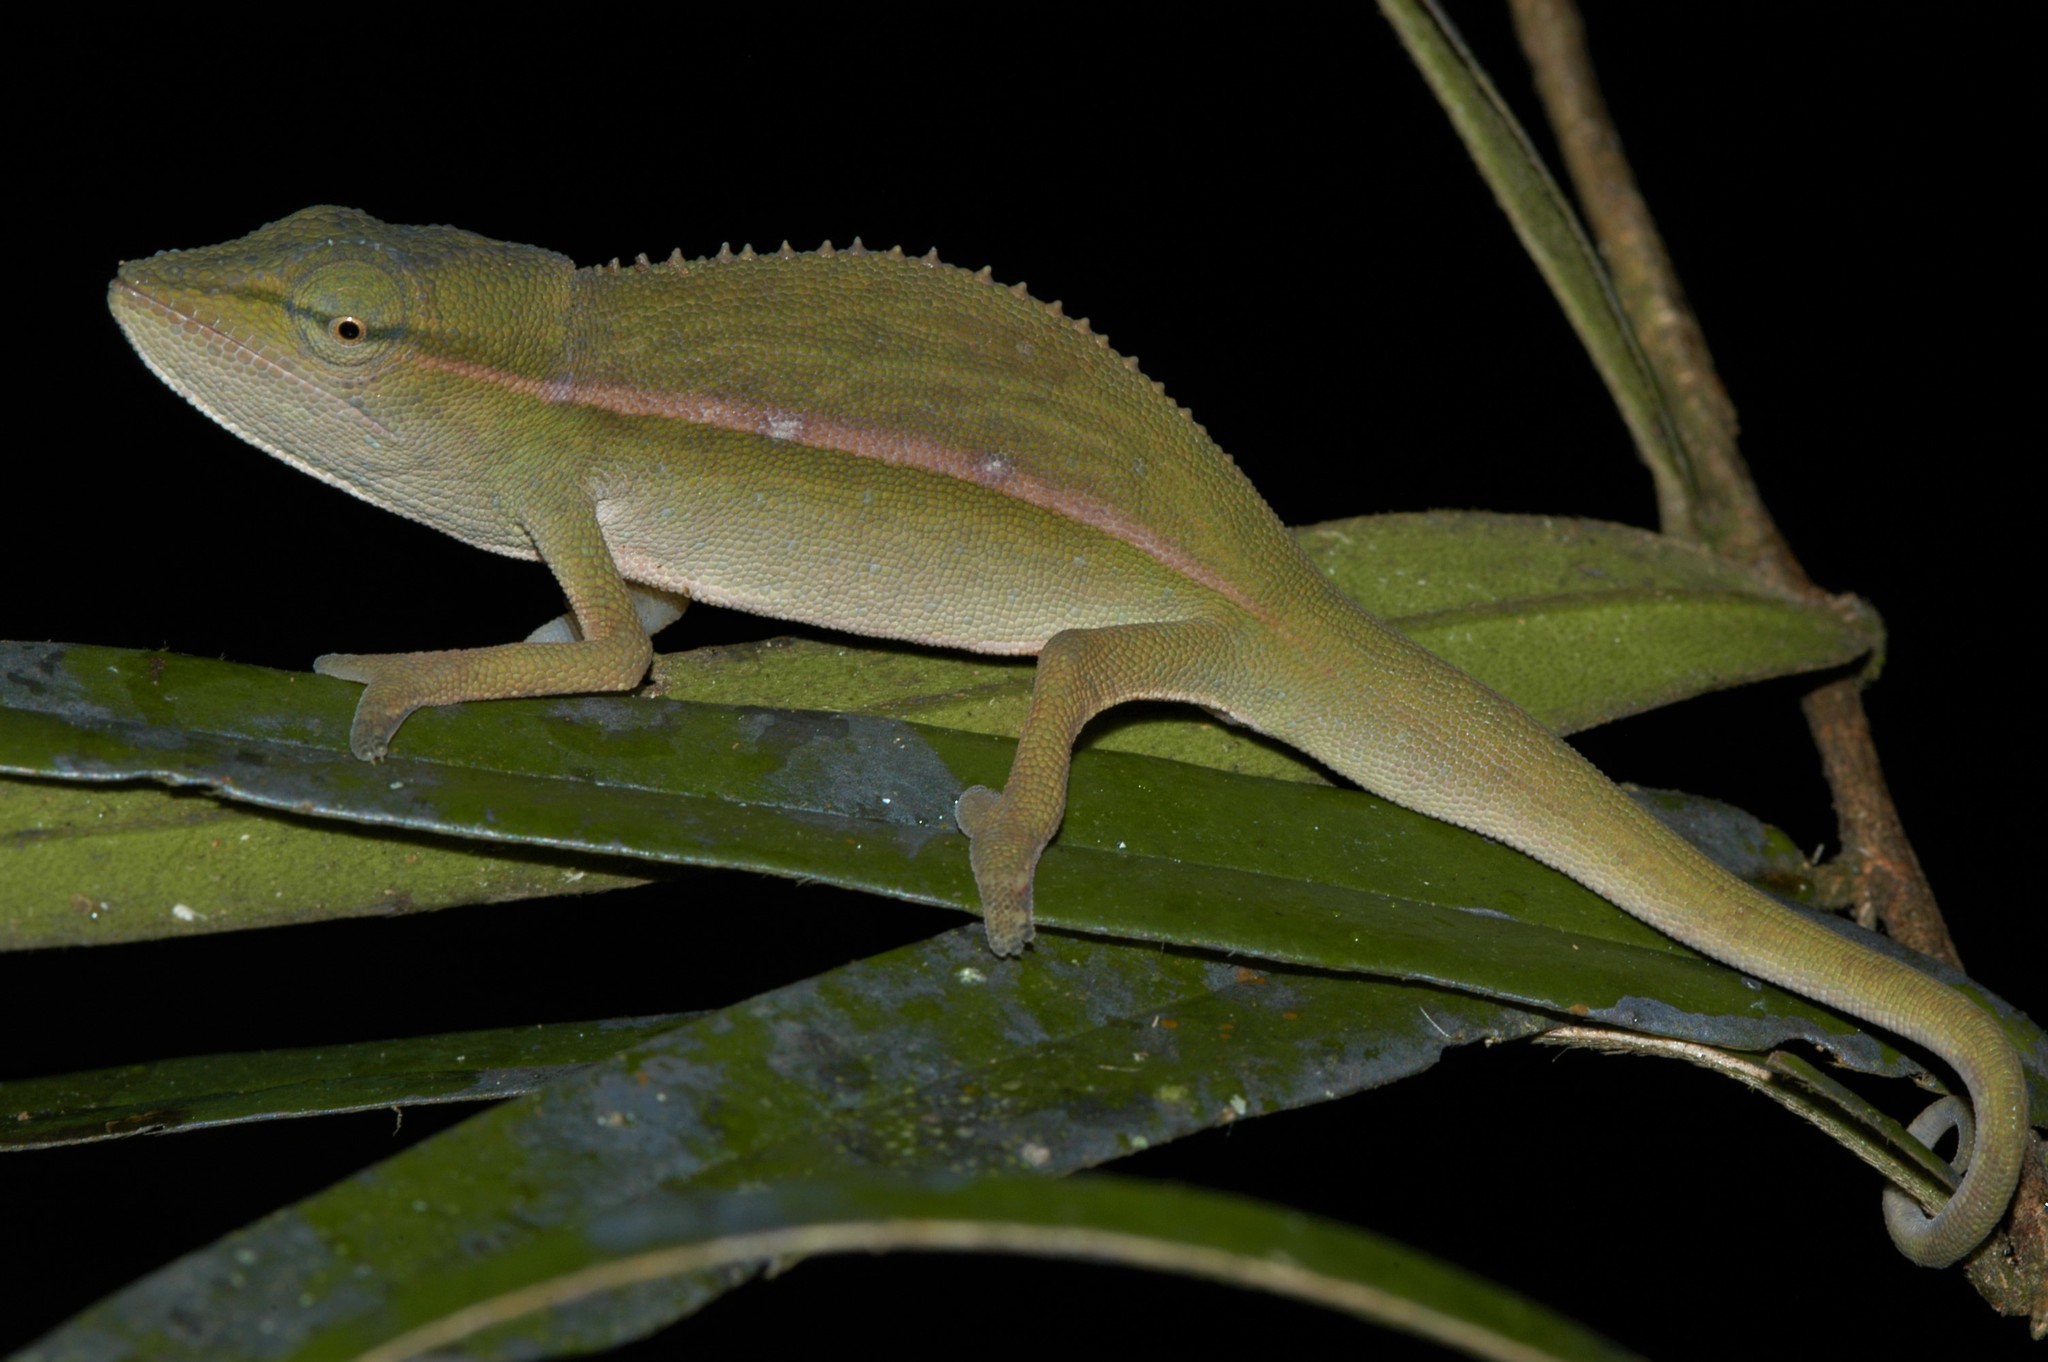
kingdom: Animalia
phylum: Chordata
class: Squamata
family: Chamaeleonidae
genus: Calumma
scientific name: Calumma gastrotaenia
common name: Short-nosed chameleon
